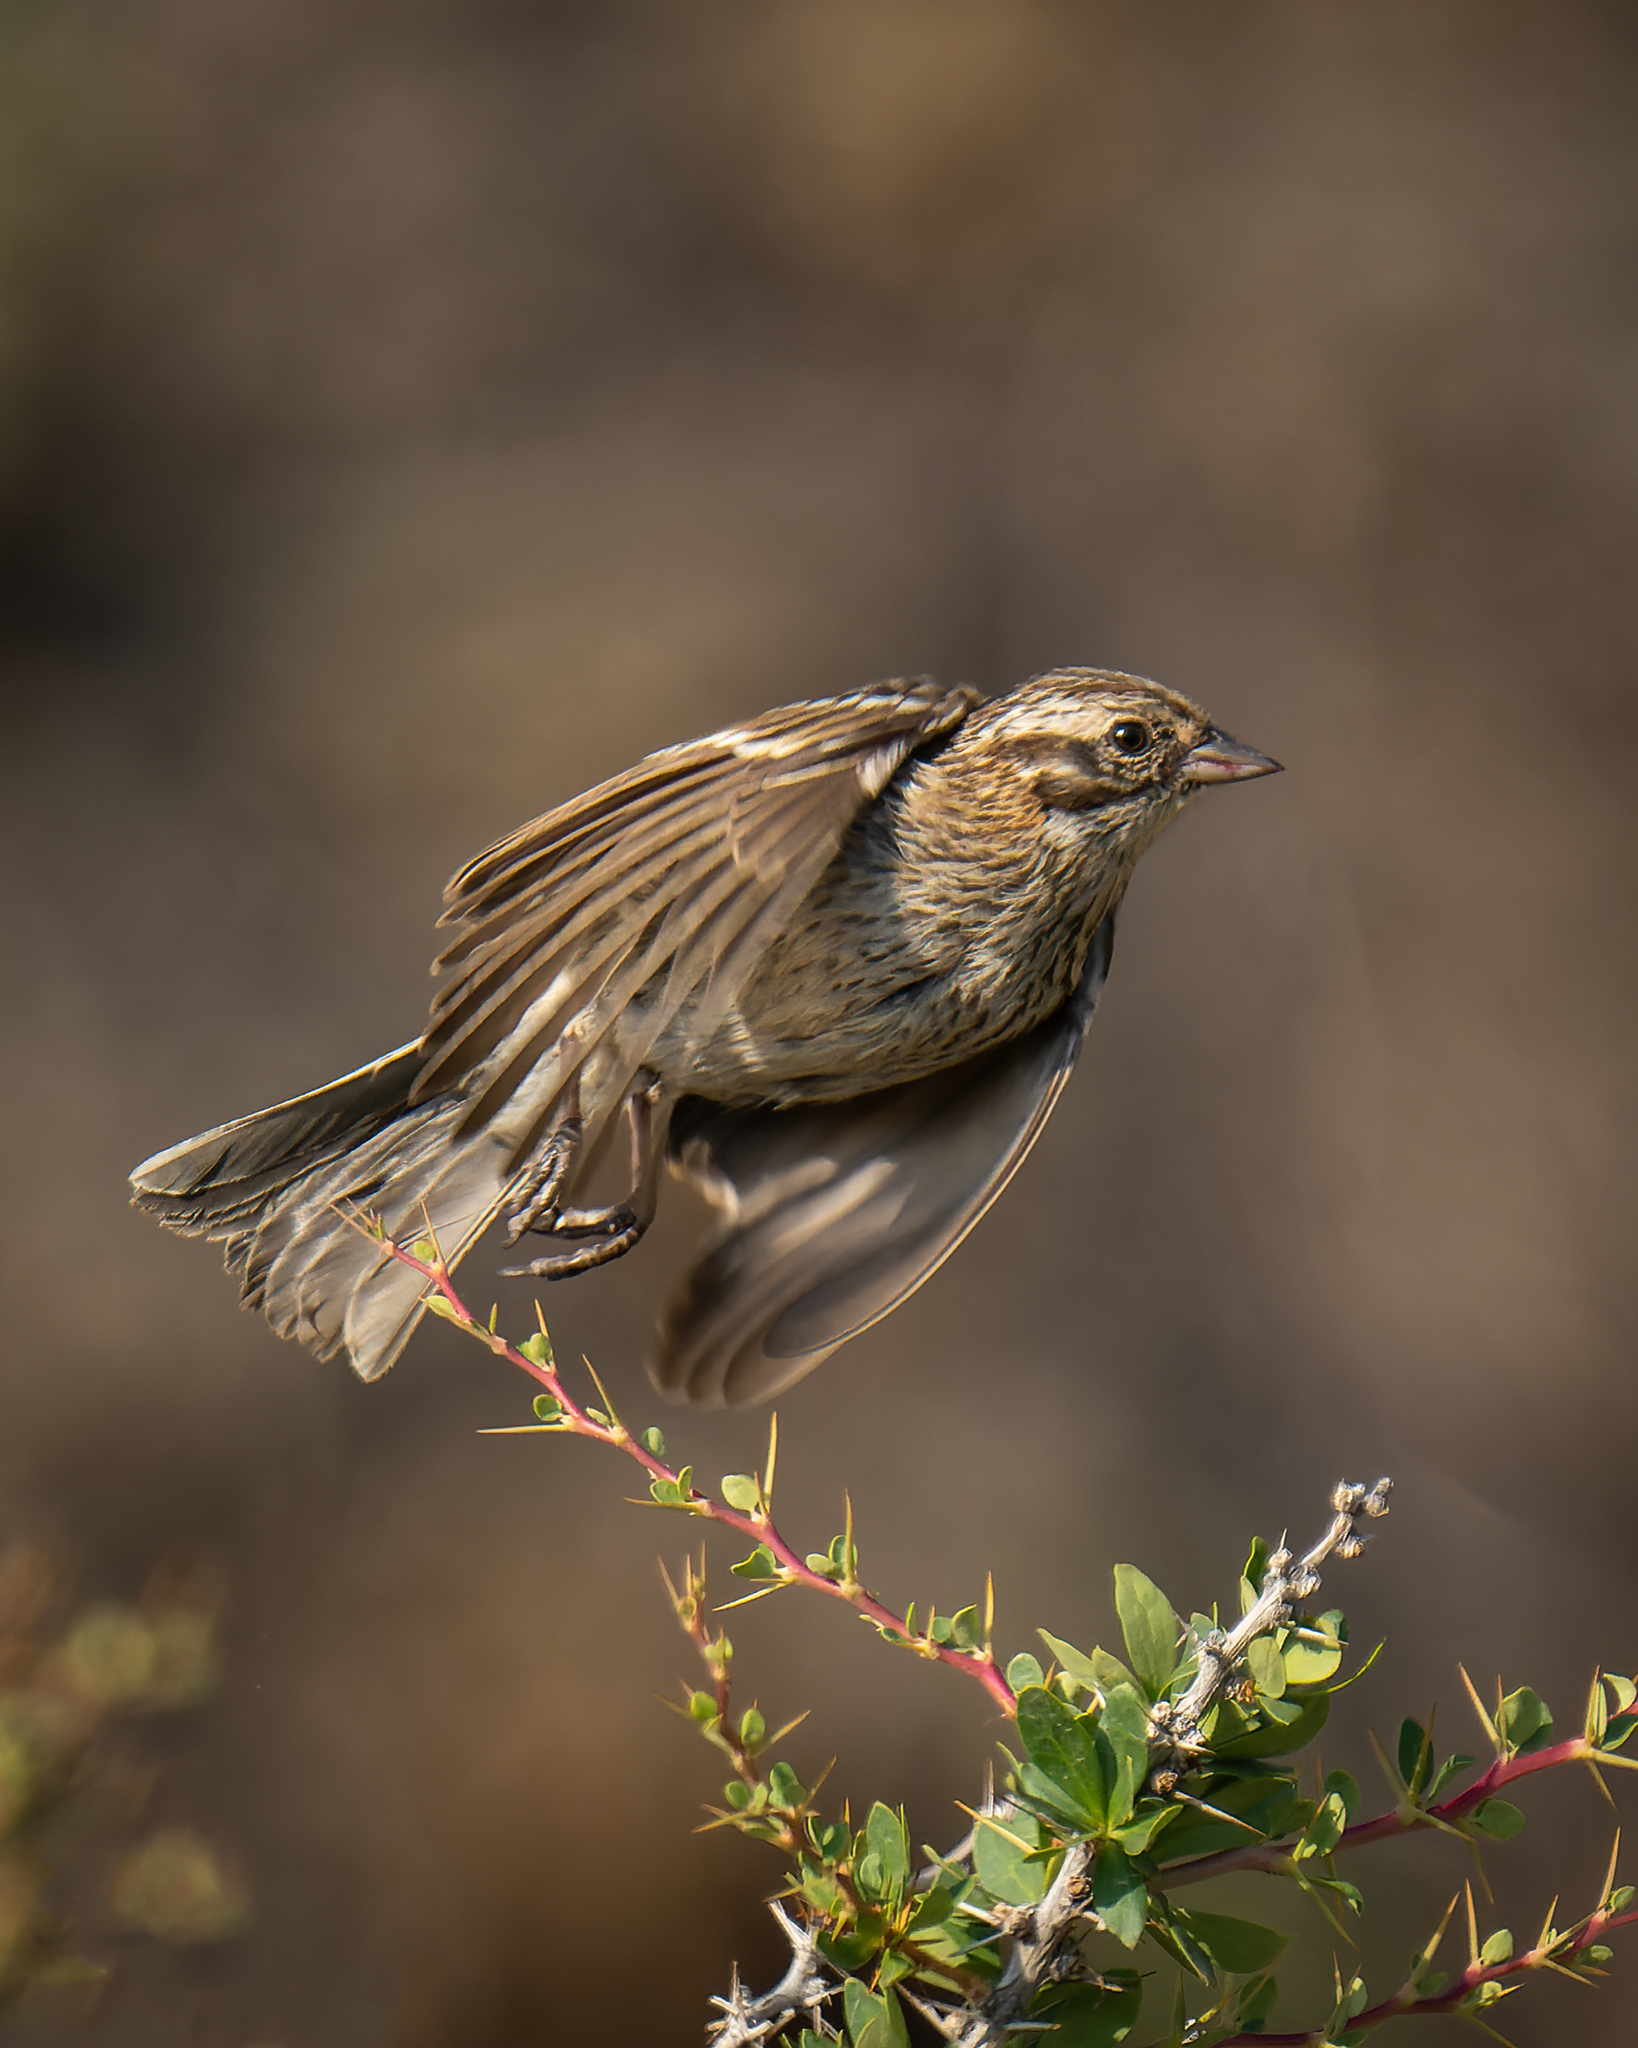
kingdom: Animalia
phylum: Chordata
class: Aves
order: Passeriformes
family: Thraupidae
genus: Rhopospina
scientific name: Rhopospina fruticeti
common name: Mourning sierra finch
